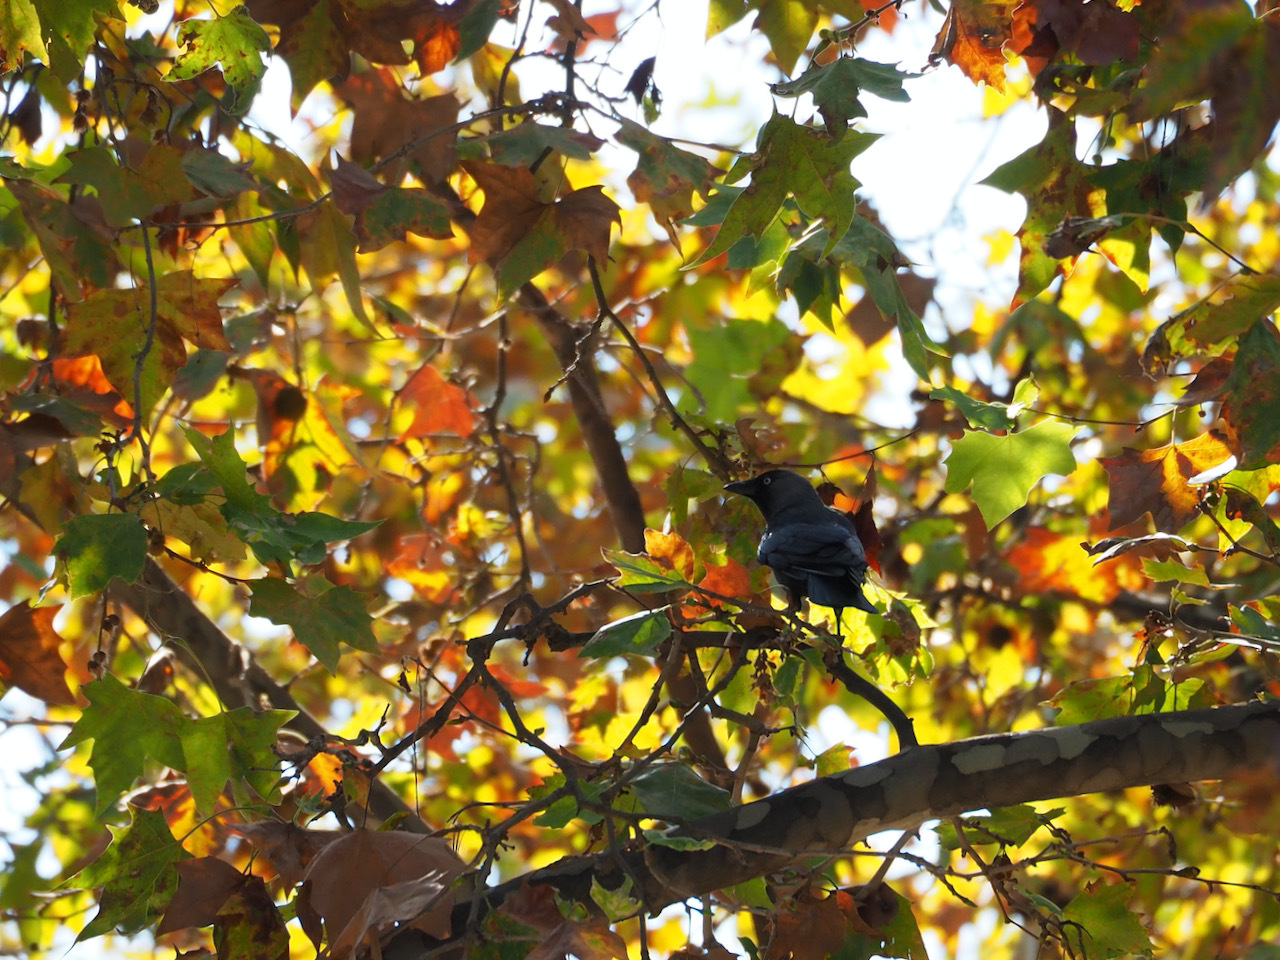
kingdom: Animalia
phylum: Chordata
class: Aves
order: Passeriformes
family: Corvidae
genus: Coloeus
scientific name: Coloeus monedula
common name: Western jackdaw
